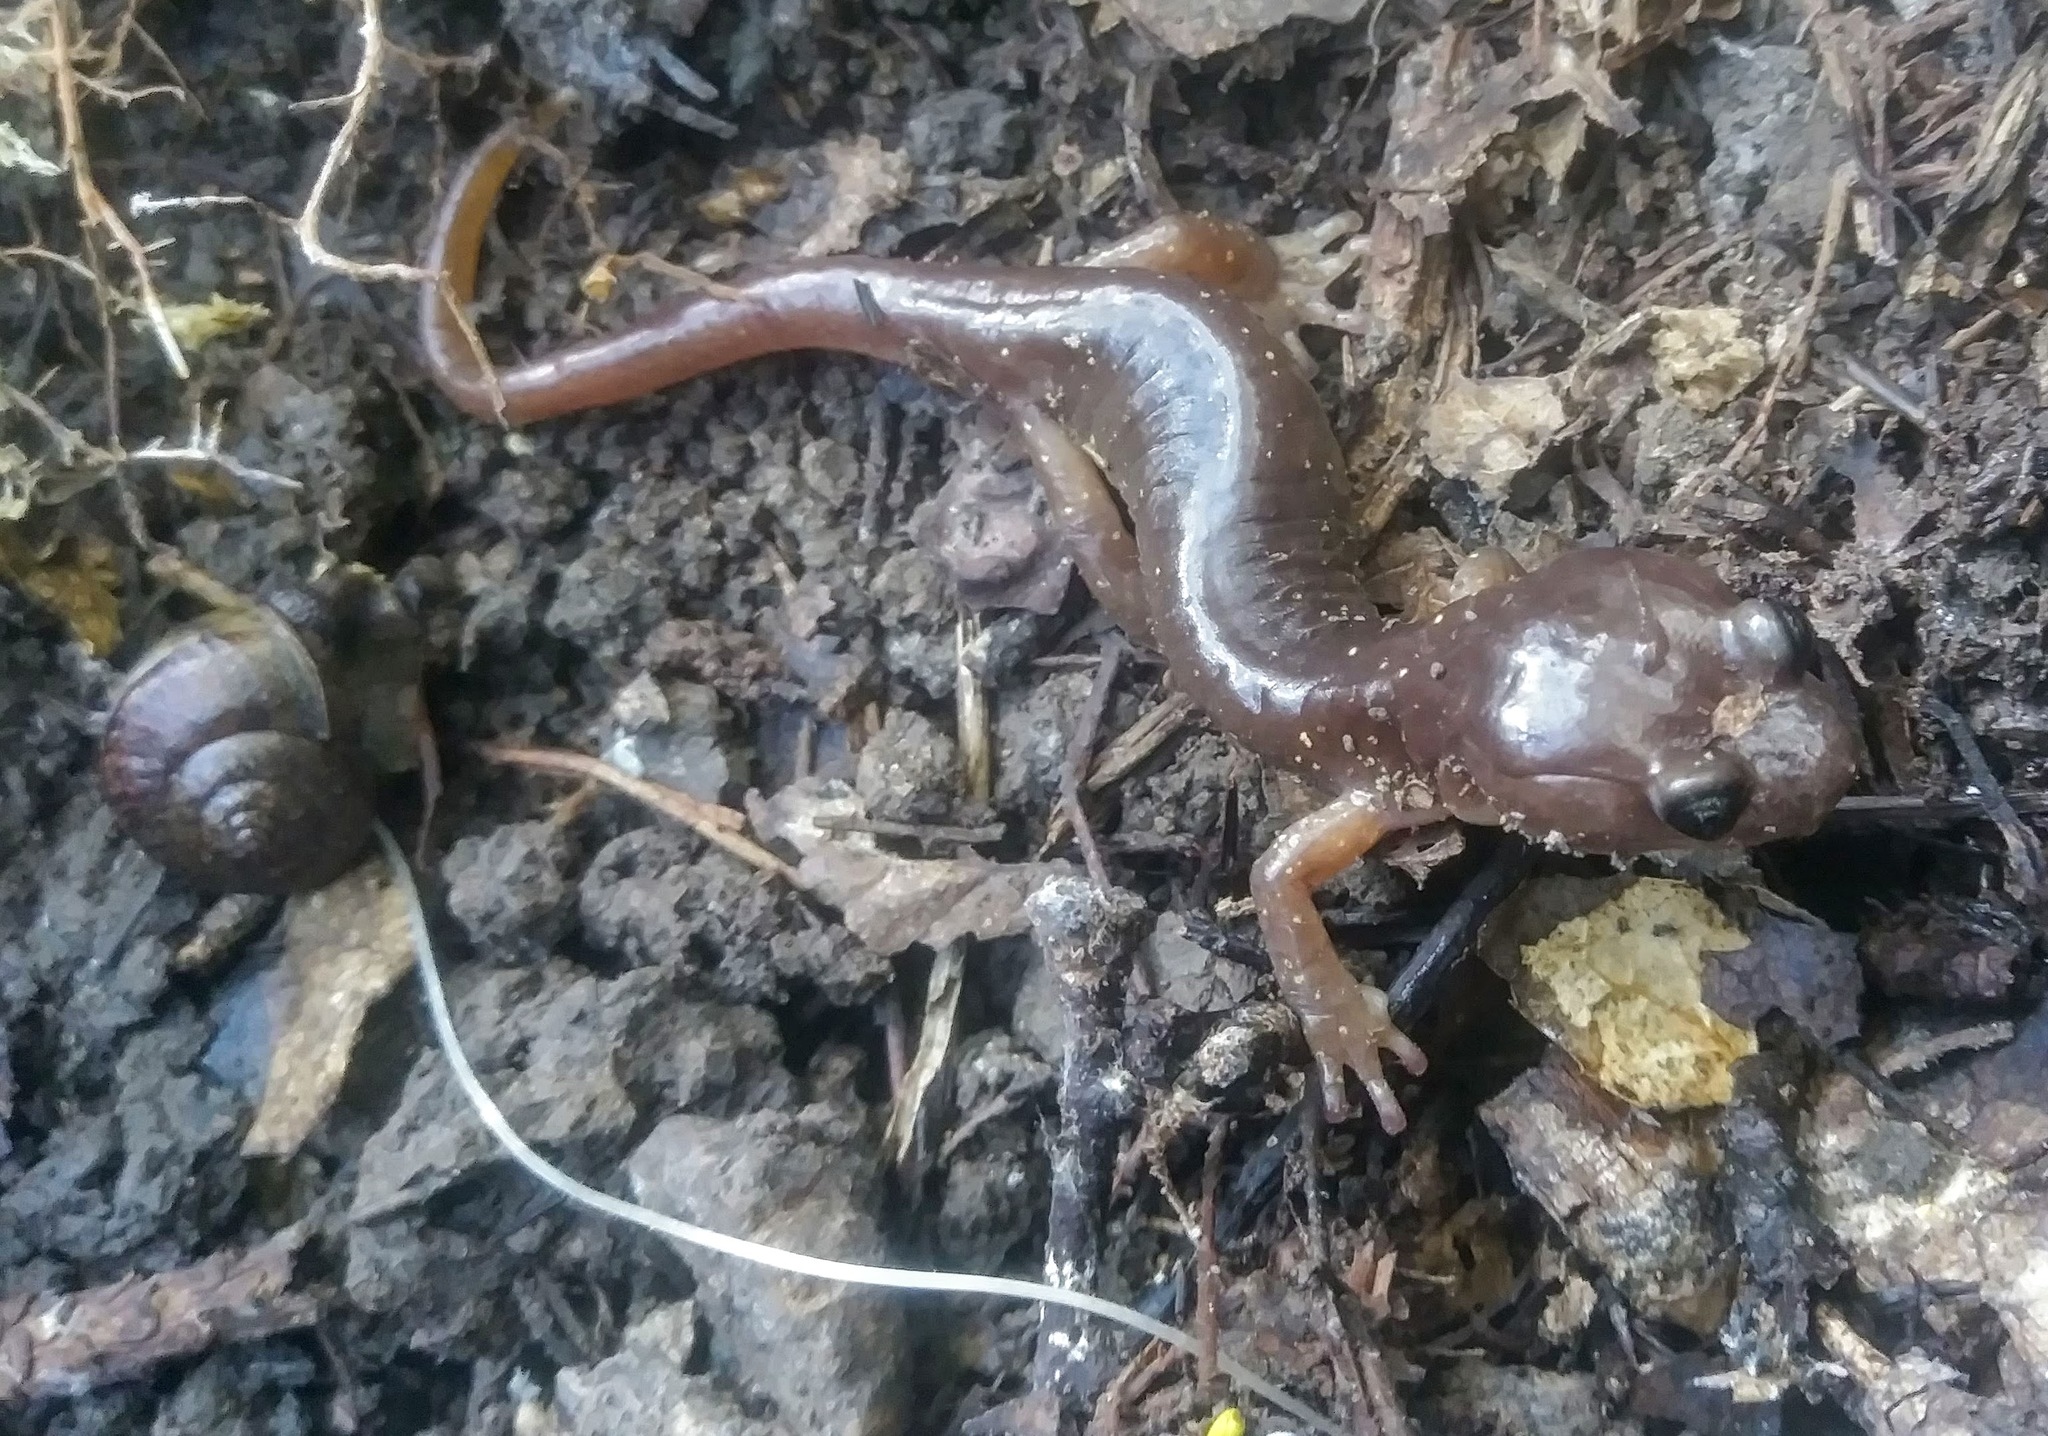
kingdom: Animalia
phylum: Chordata
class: Amphibia
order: Caudata
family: Plethodontidae
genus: Aneides
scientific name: Aneides lugubris
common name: Arboreal salamander
